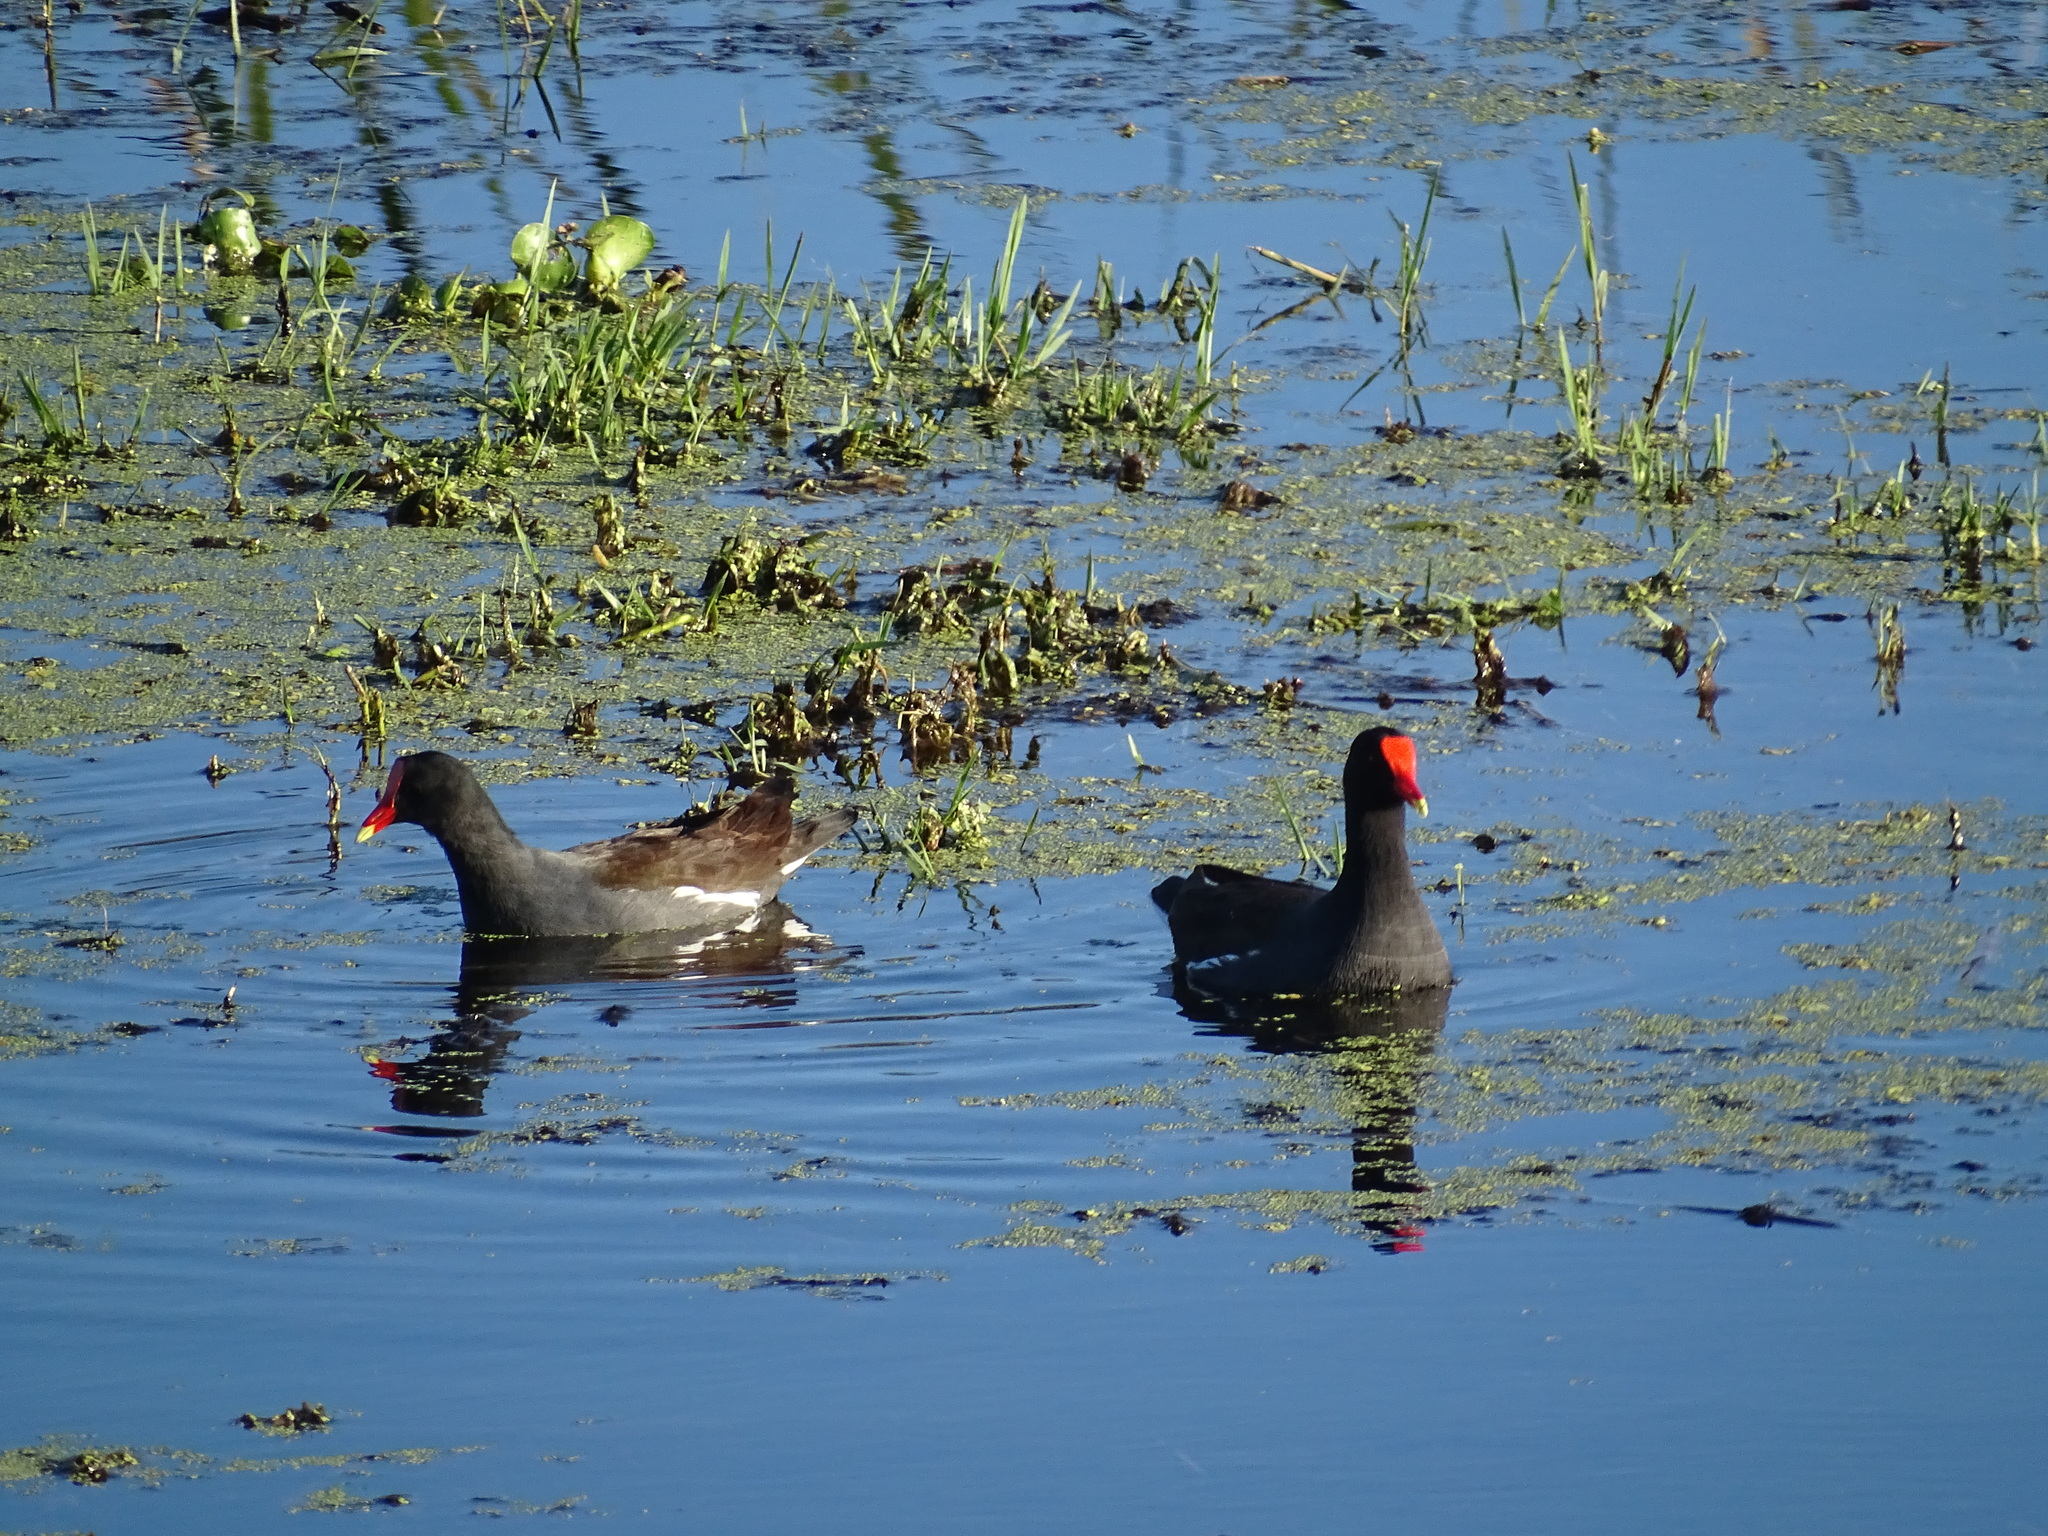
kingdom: Animalia
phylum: Chordata
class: Aves
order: Gruiformes
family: Rallidae
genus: Gallinula
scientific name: Gallinula chloropus
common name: Common moorhen
